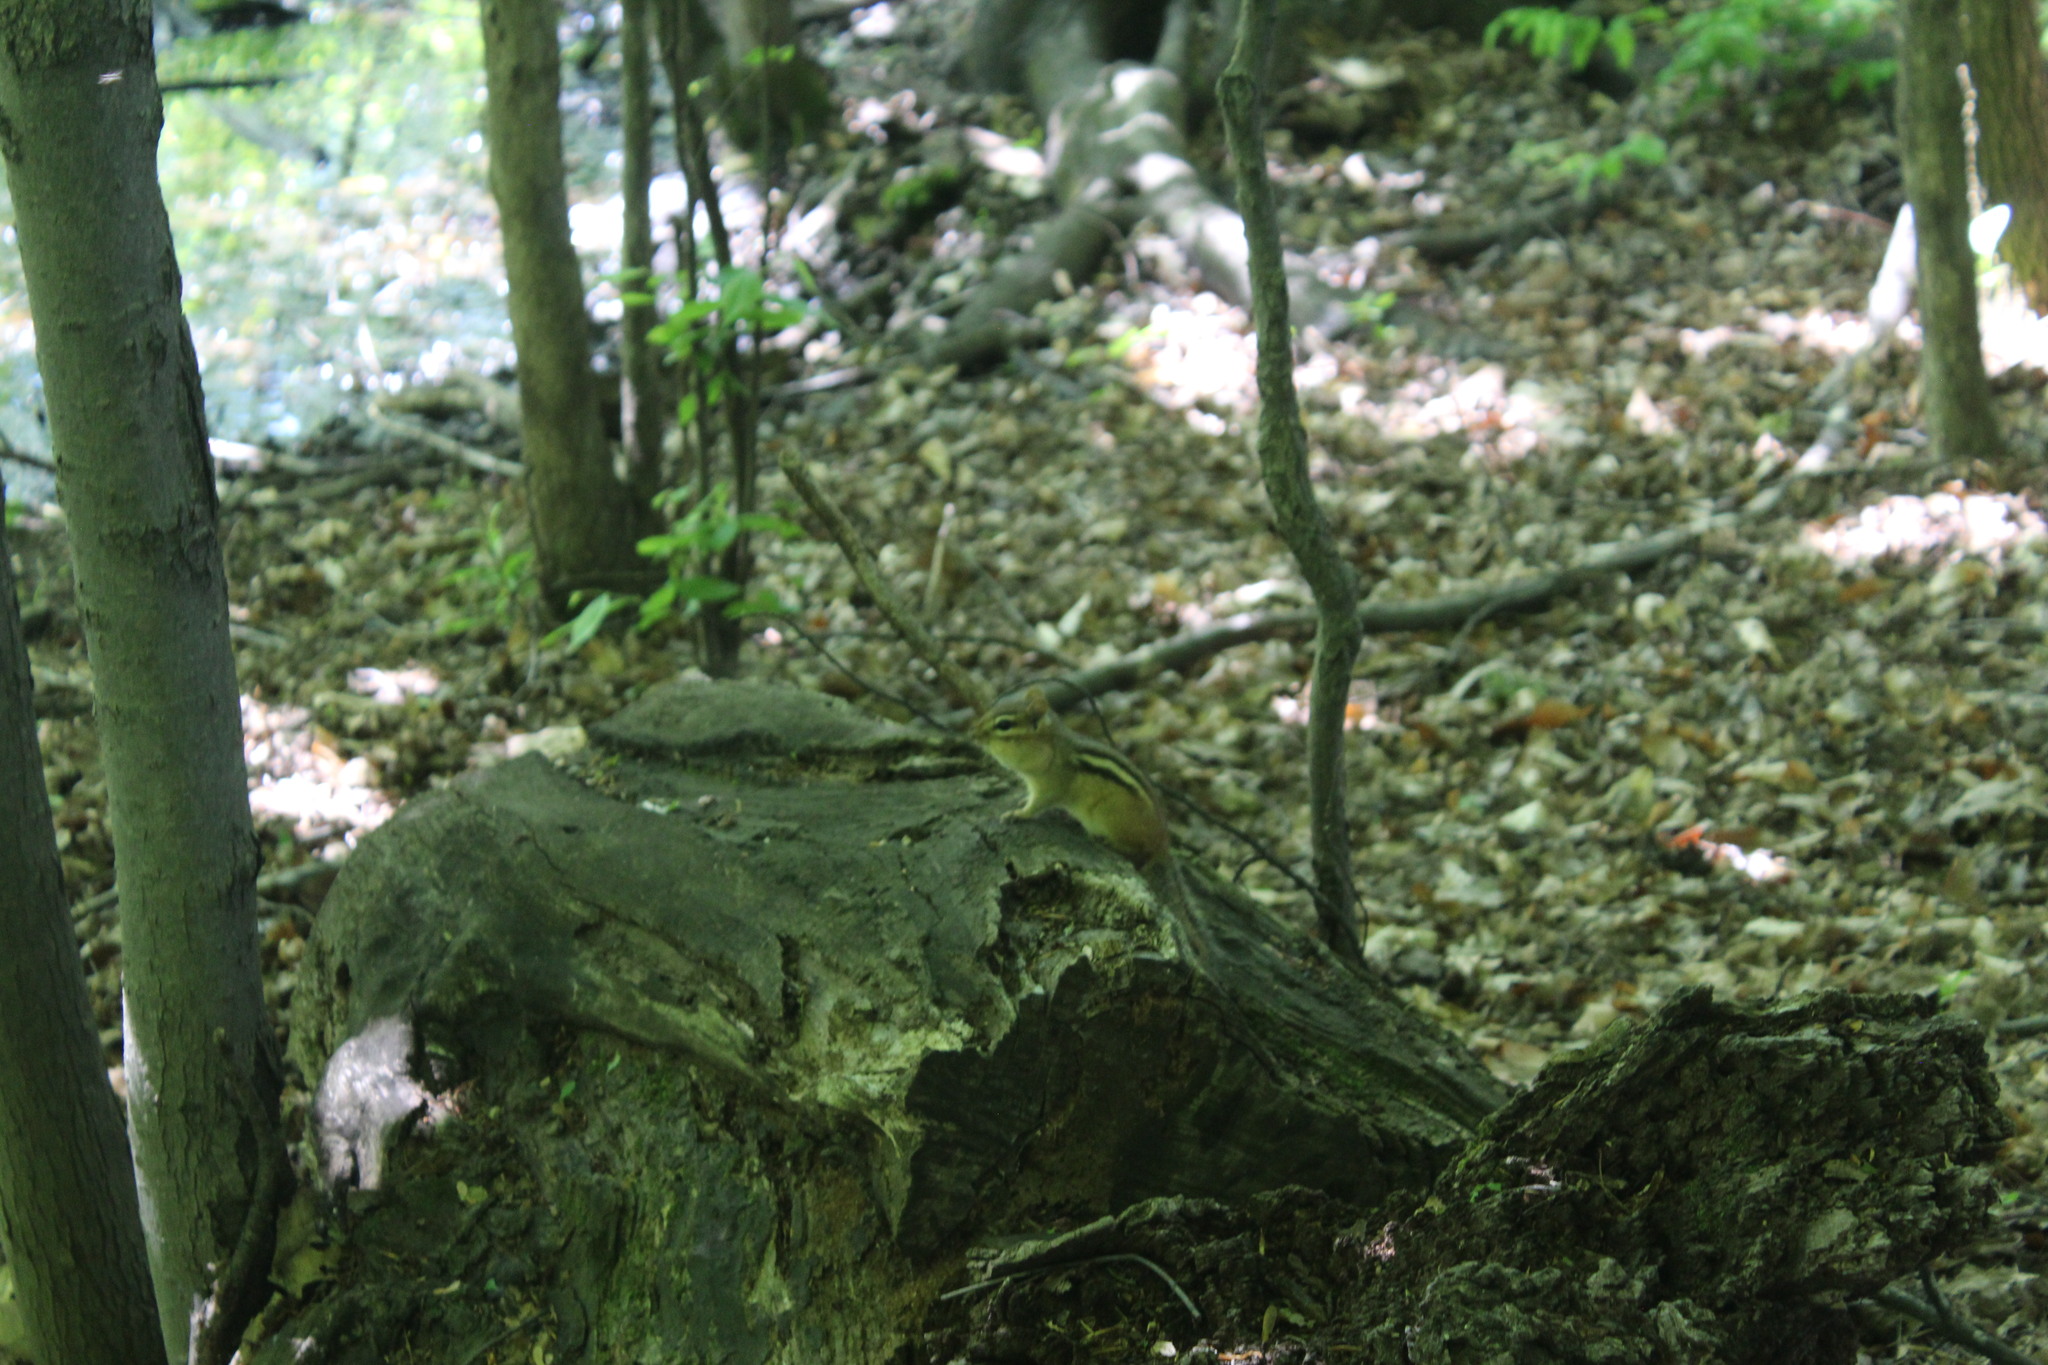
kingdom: Animalia
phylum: Chordata
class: Mammalia
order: Rodentia
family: Sciuridae
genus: Tamias
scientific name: Tamias striatus
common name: Eastern chipmunk
